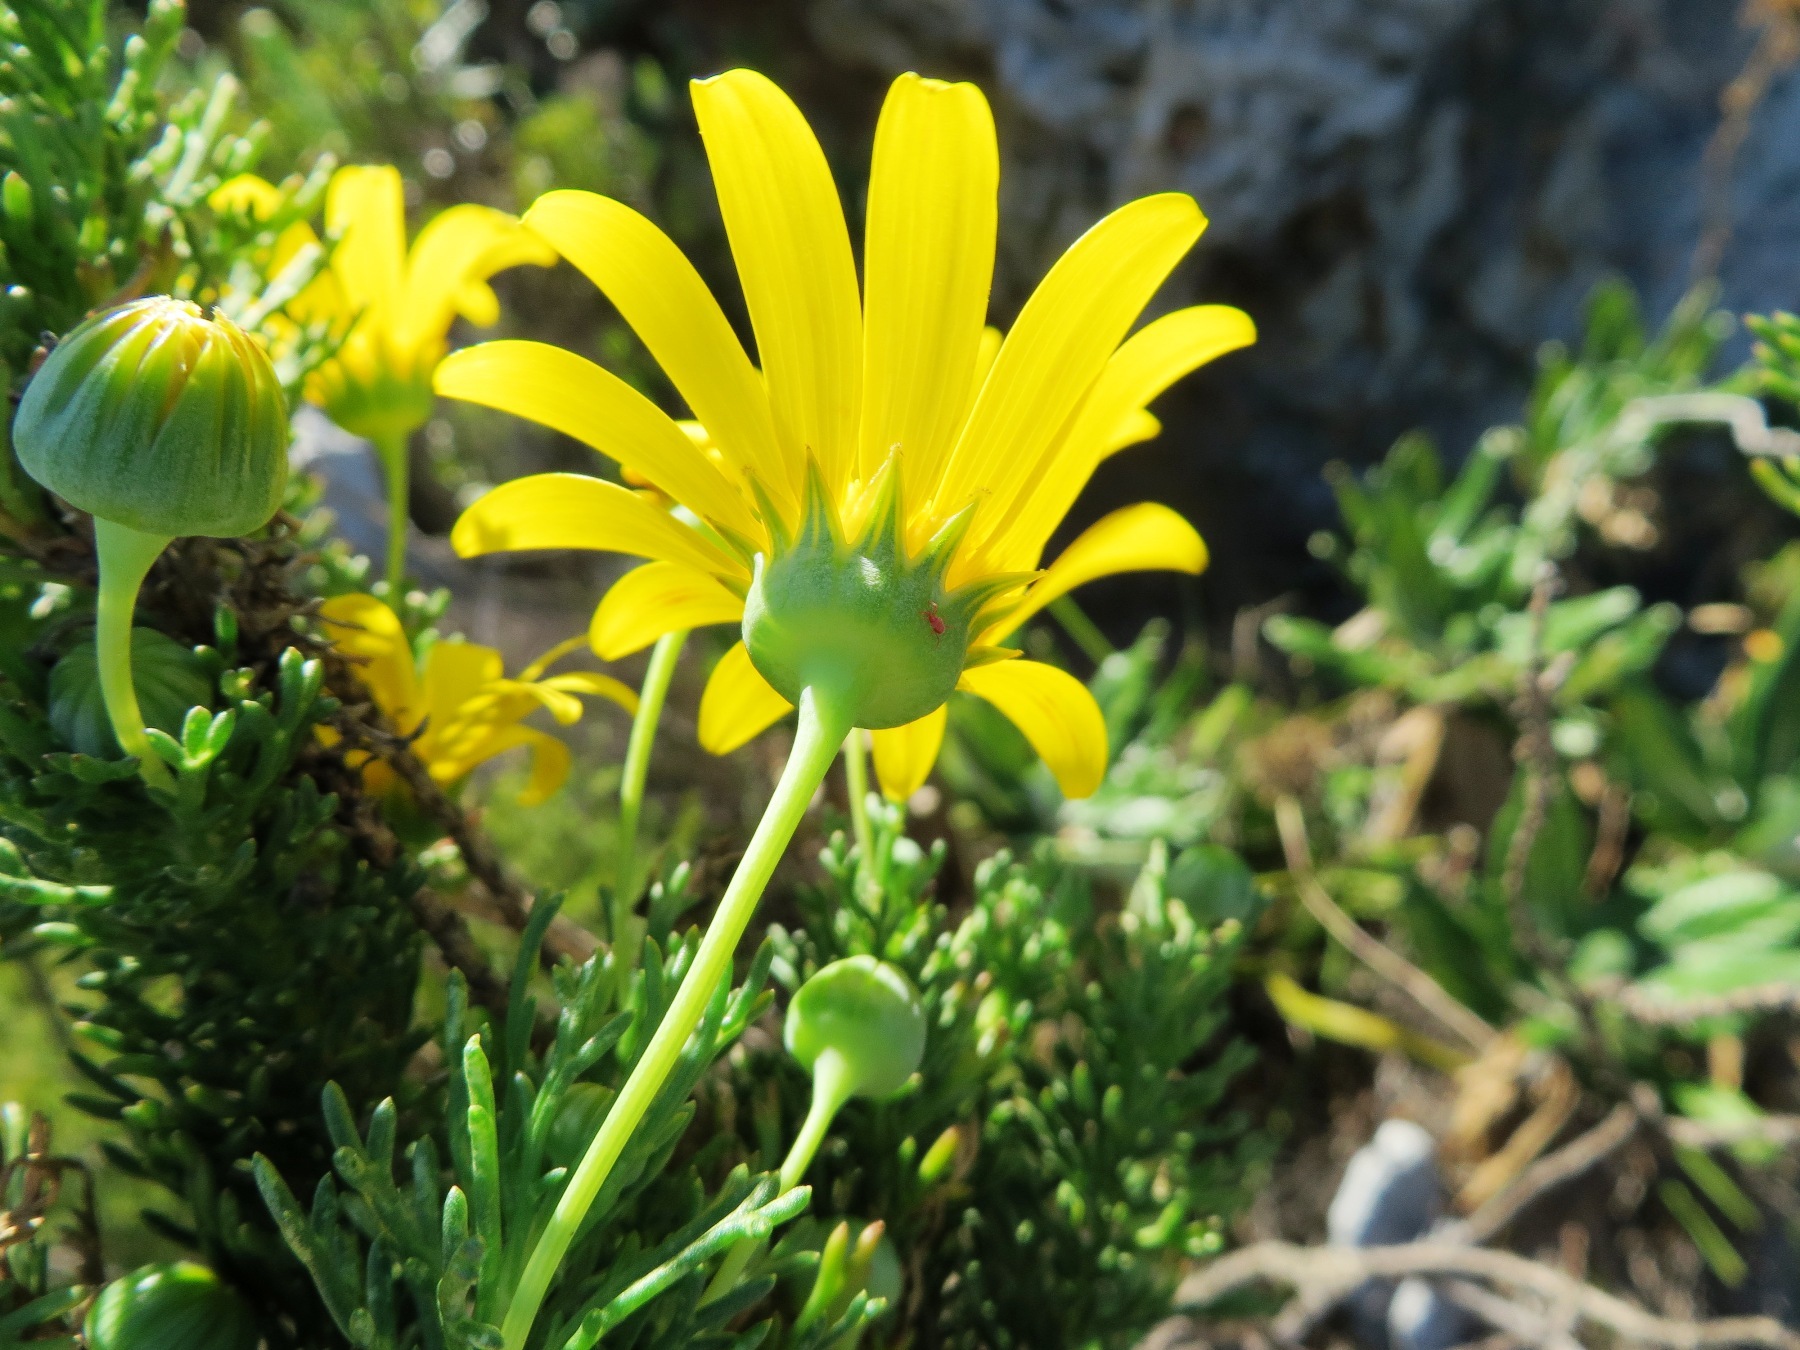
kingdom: Plantae
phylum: Tracheophyta
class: Magnoliopsida
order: Asterales
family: Asteraceae
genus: Euryops
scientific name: Euryops abrotanifolius
